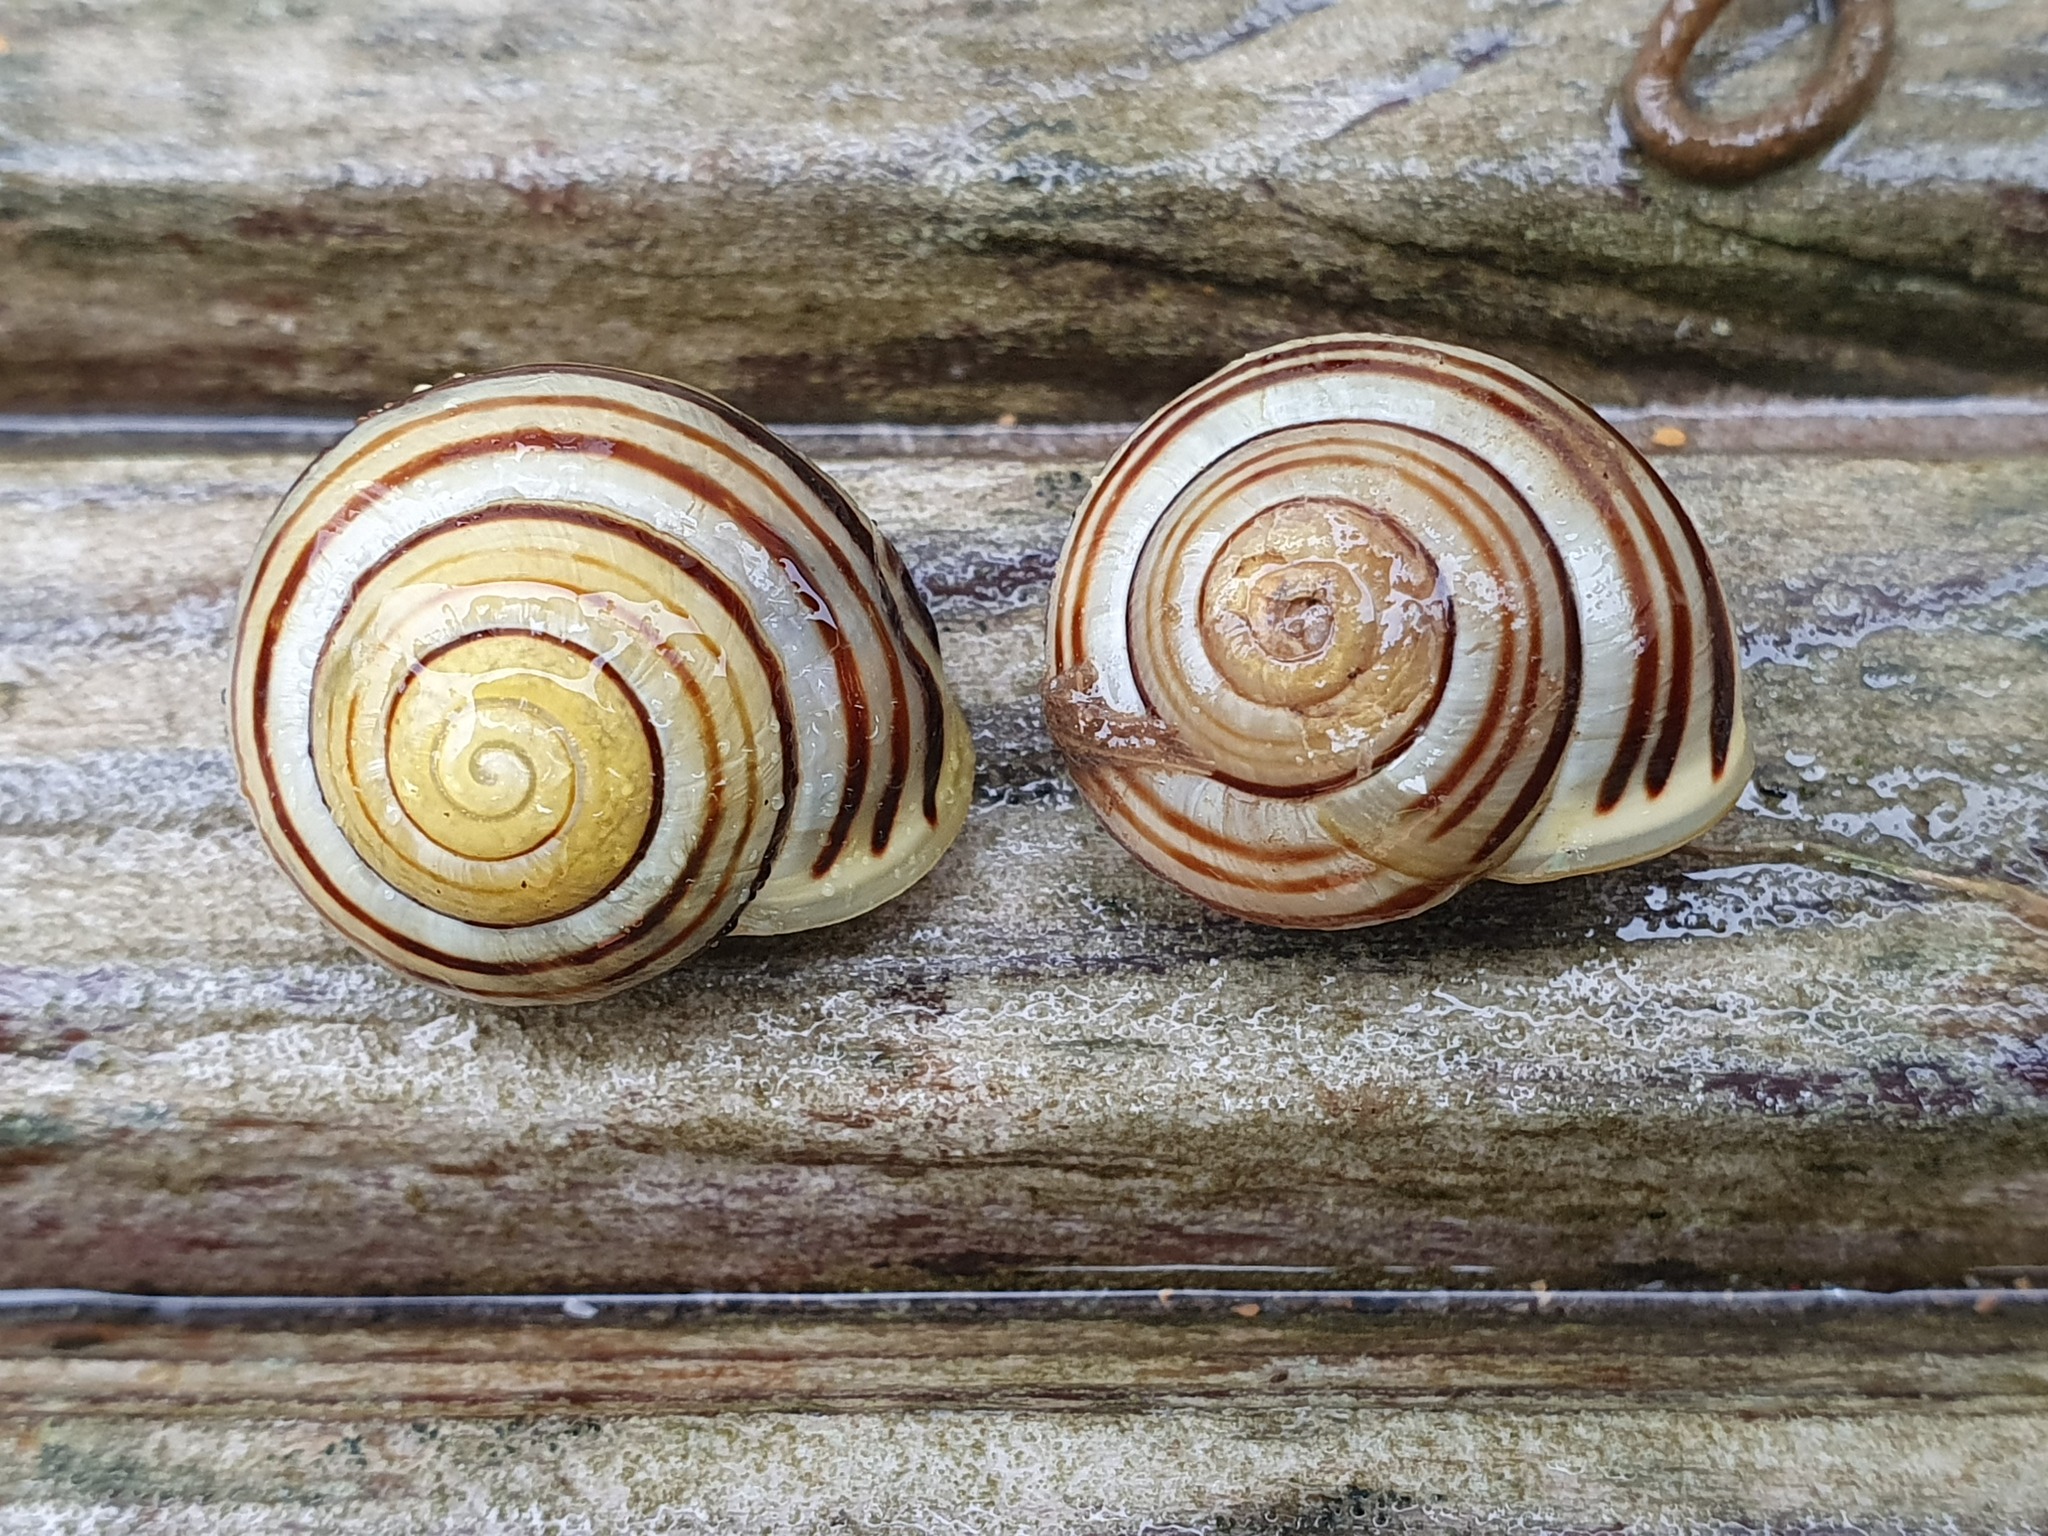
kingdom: Animalia
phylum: Mollusca
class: Gastropoda
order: Stylommatophora
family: Helicidae
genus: Cepaea
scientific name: Cepaea hortensis
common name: White-lip gardensnail
